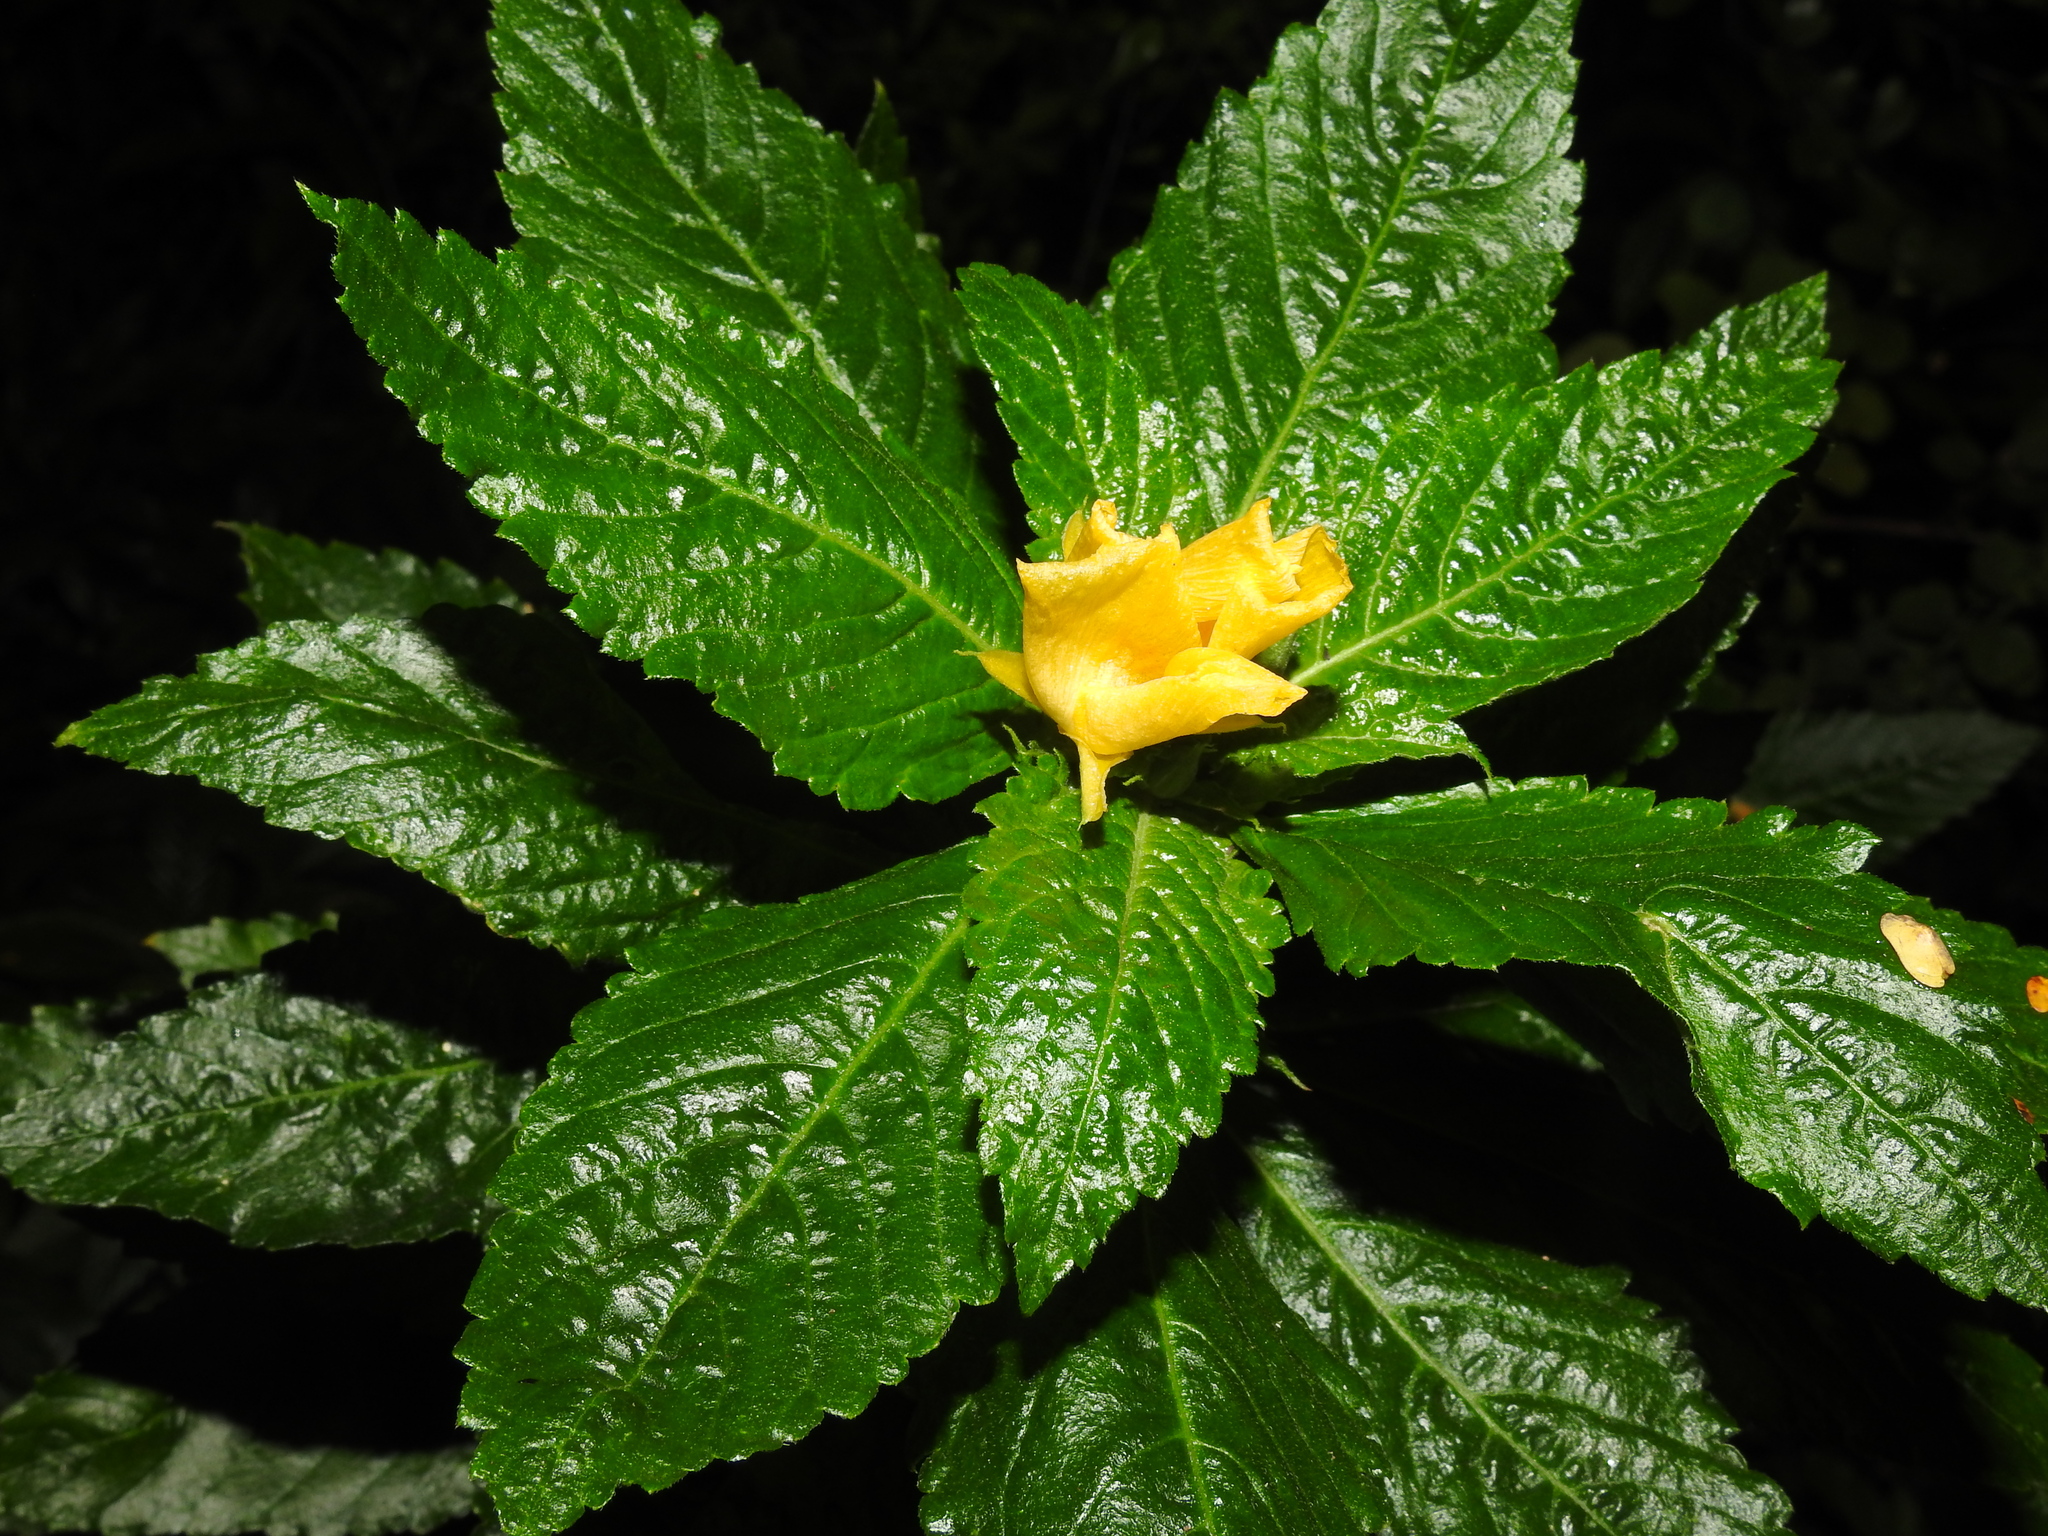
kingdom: Plantae
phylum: Tracheophyta
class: Magnoliopsida
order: Malpighiales
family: Turneraceae
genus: Turnera
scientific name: Turnera ulmifolia
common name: Ramgoat dashalong
